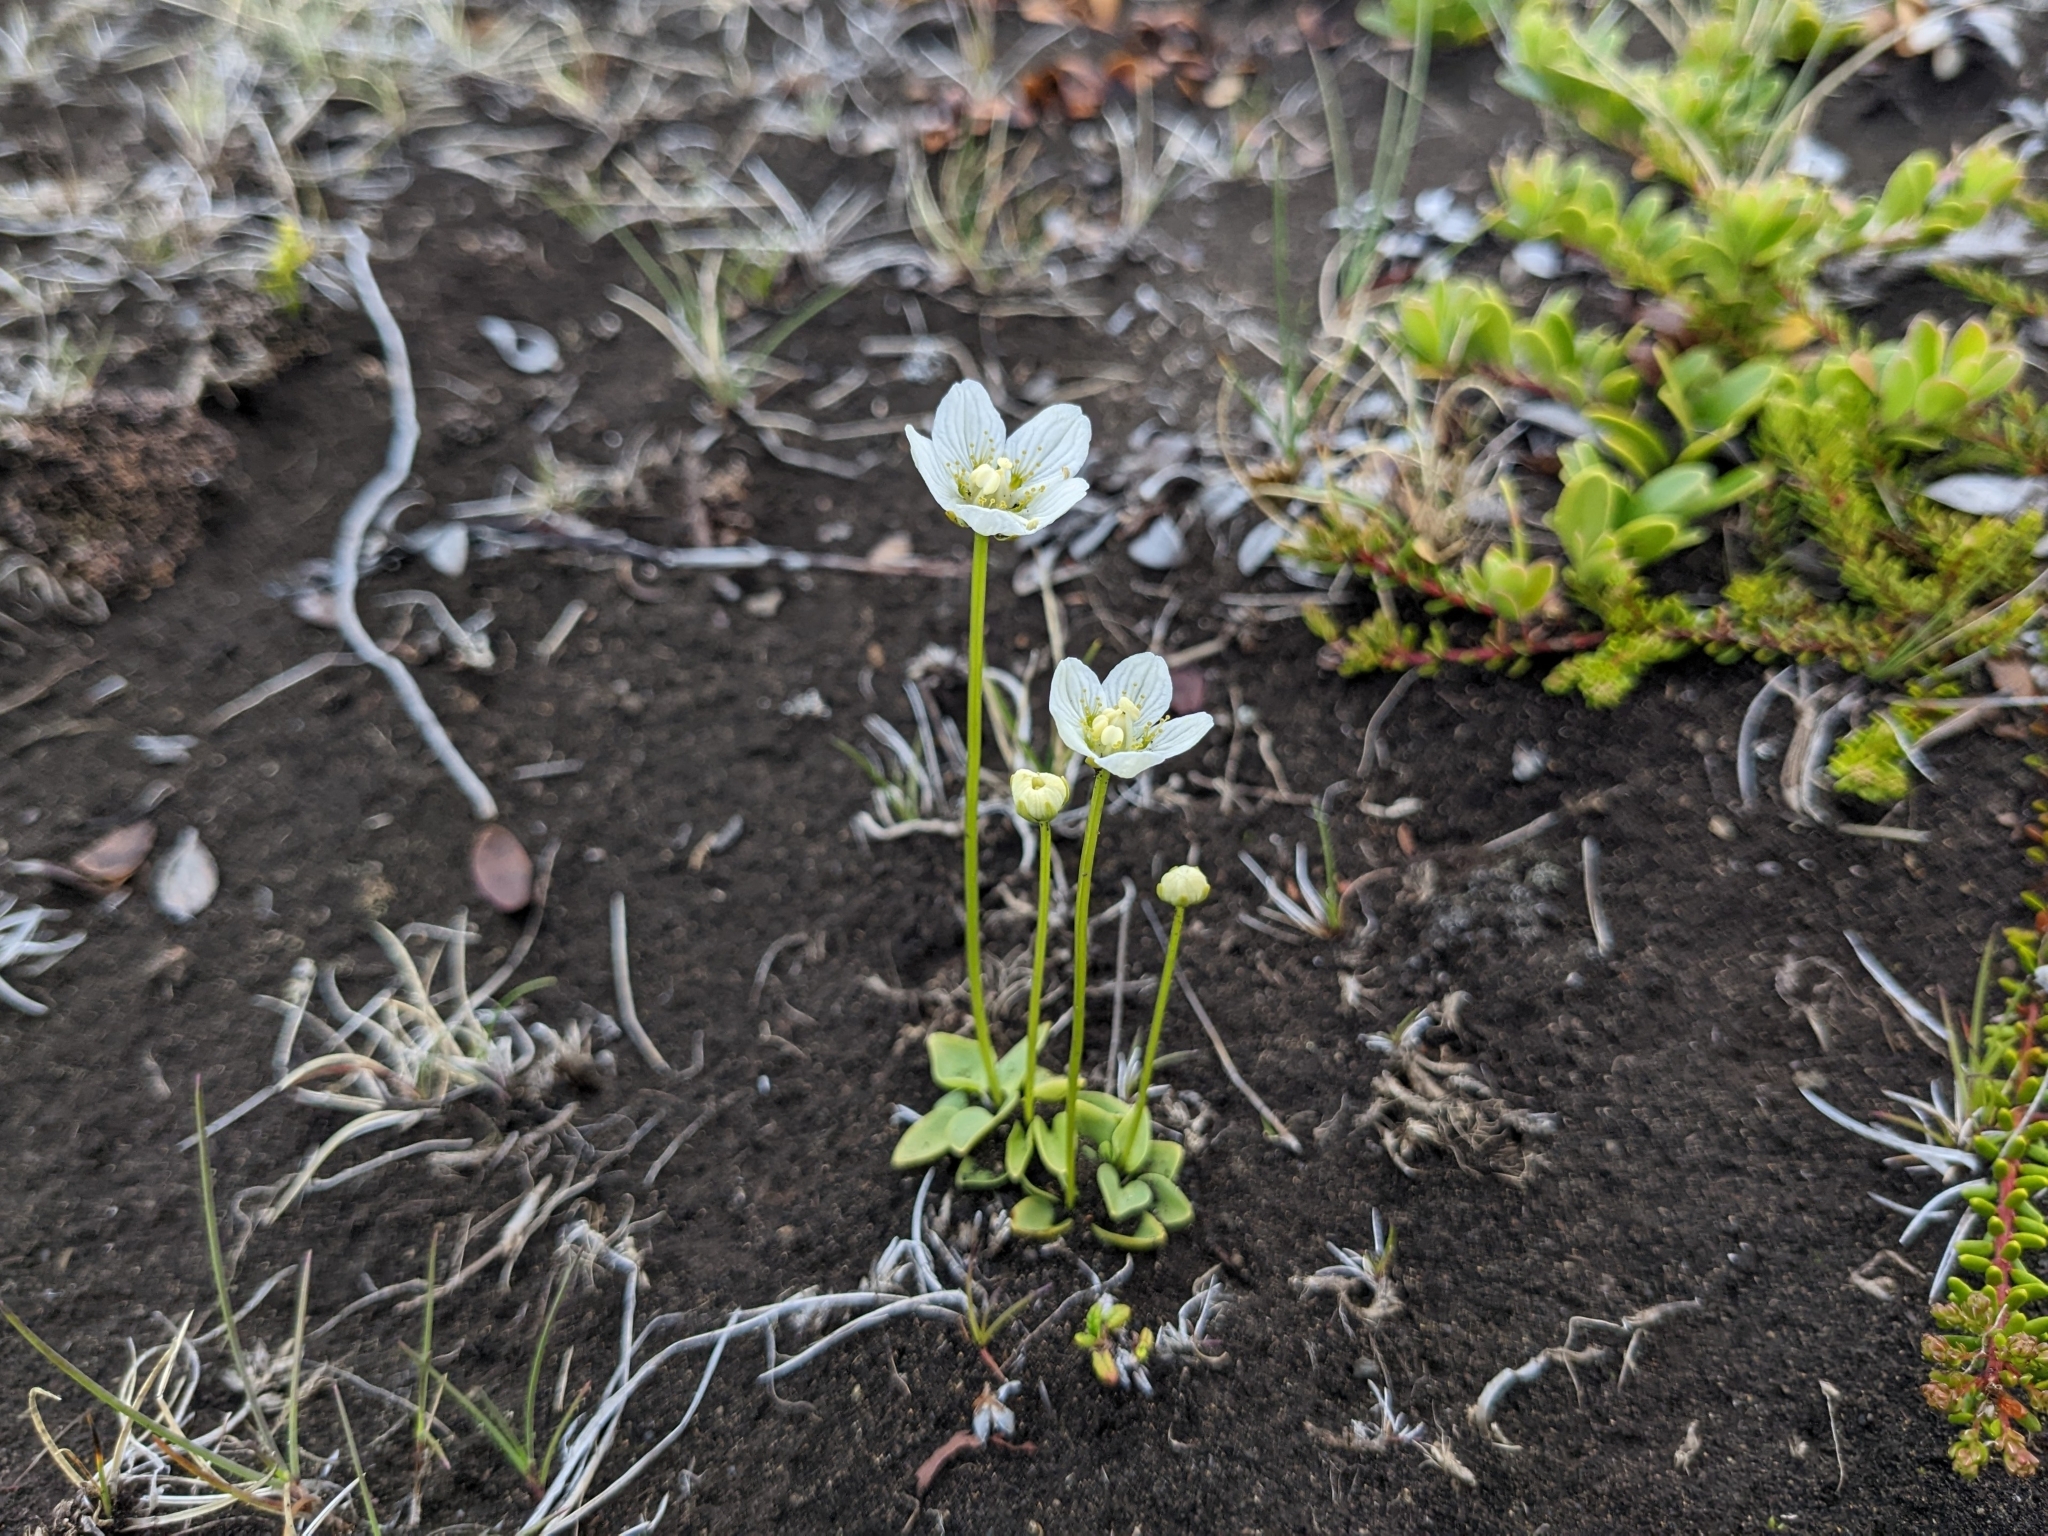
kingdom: Plantae
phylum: Tracheophyta
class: Magnoliopsida
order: Celastrales
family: Parnassiaceae
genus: Parnassia
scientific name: Parnassia palustris
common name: Grass-of-parnassus
